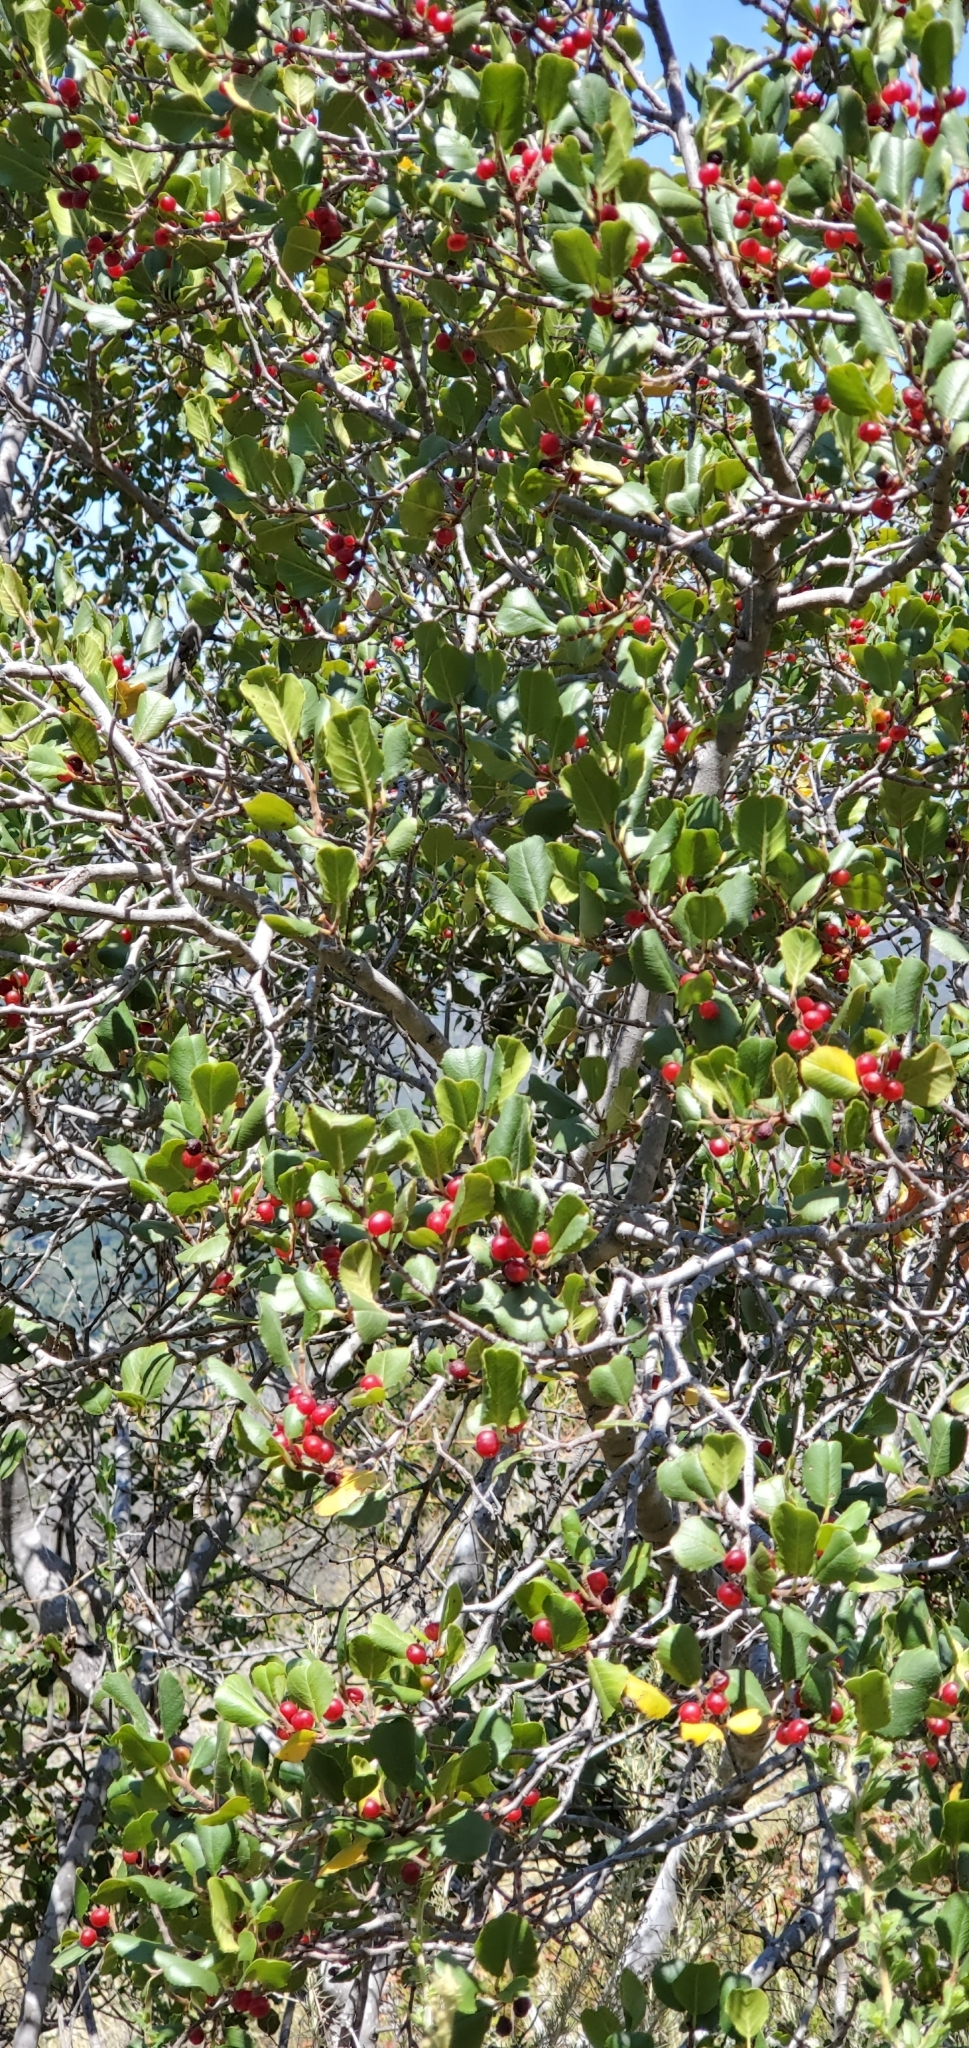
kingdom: Plantae
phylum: Tracheophyta
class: Magnoliopsida
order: Rosales
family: Rhamnaceae
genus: Endotropis
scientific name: Endotropis crocea
